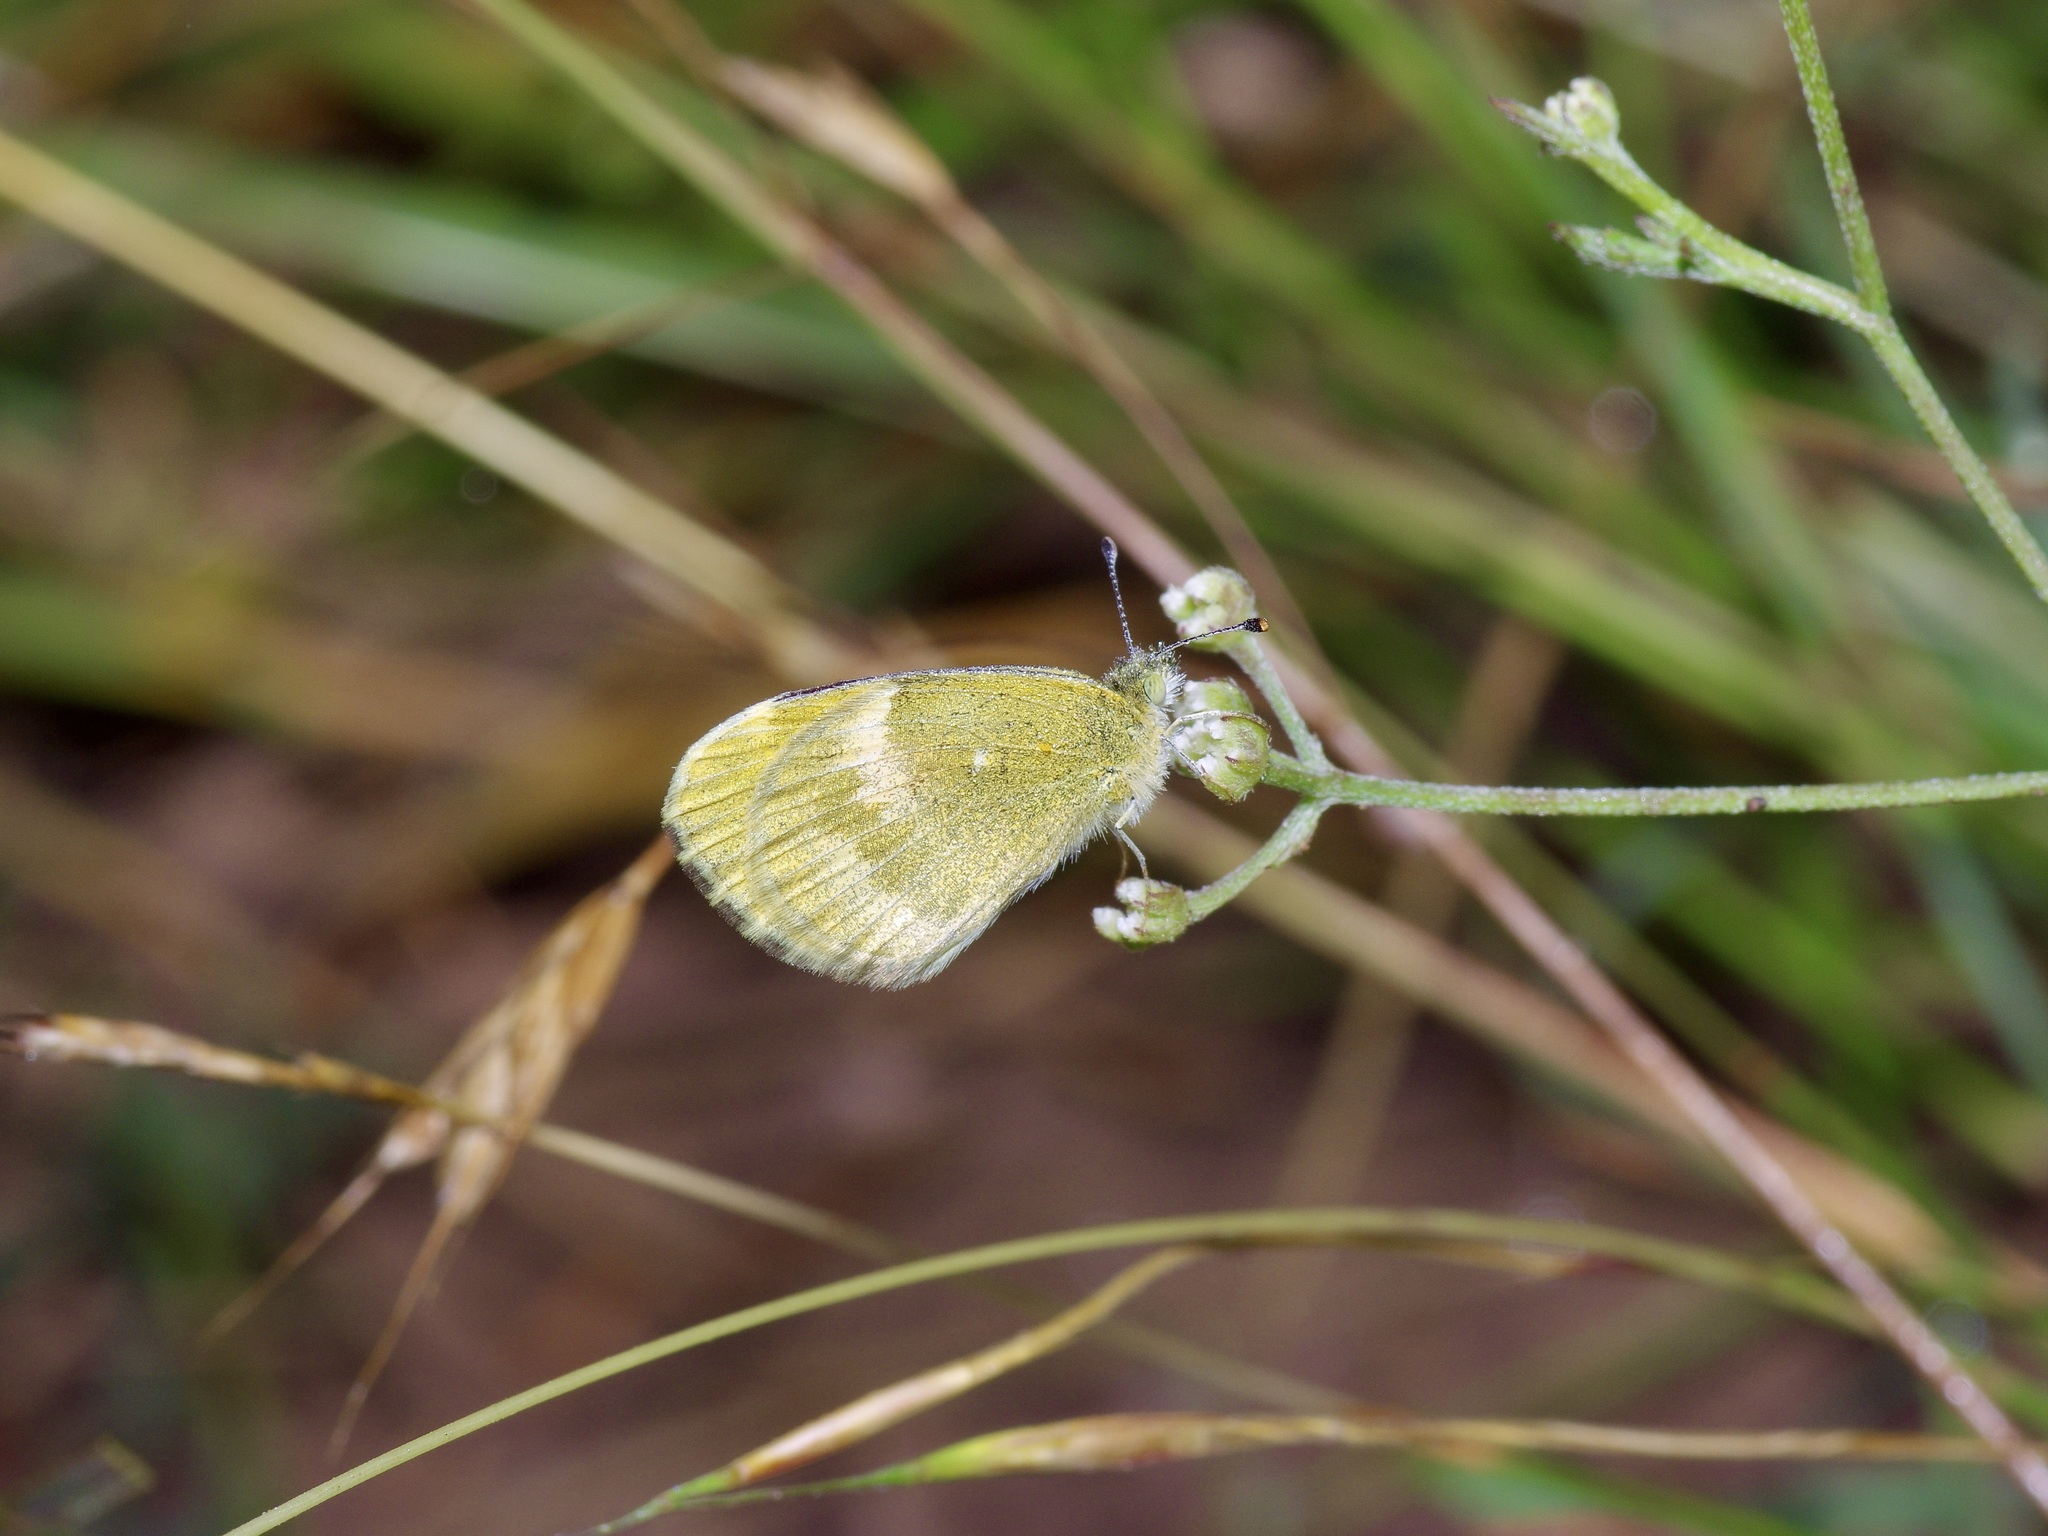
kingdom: Animalia
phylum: Arthropoda
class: Insecta
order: Lepidoptera
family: Pieridae
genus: Nathalis
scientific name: Nathalis iole
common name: Dainty sulphur
